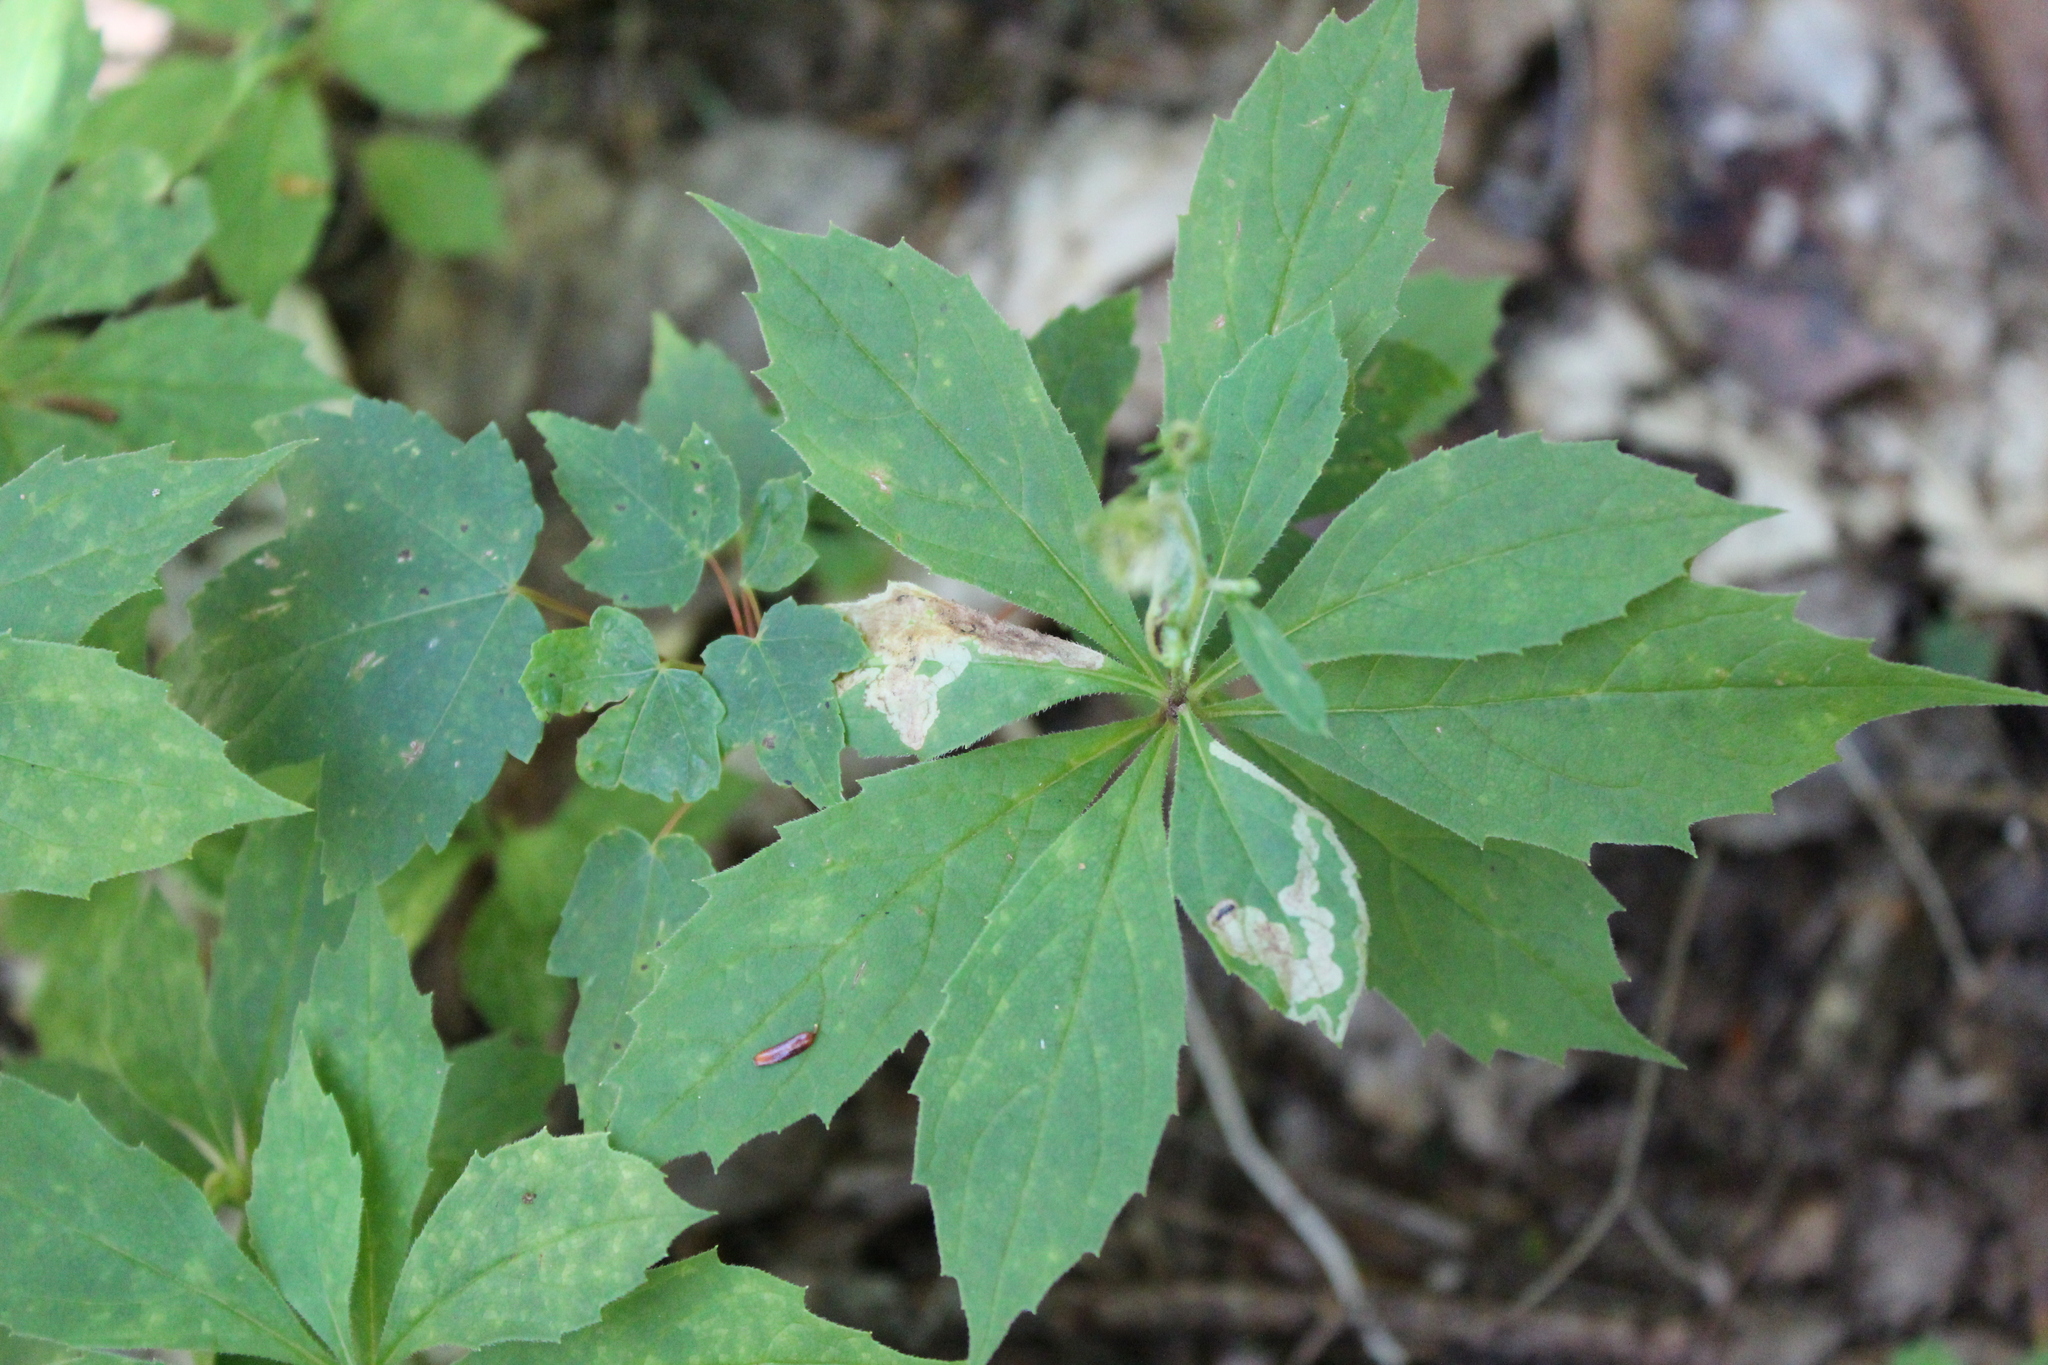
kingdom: Plantae
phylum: Tracheophyta
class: Magnoliopsida
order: Asterales
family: Asteraceae
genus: Oclemena
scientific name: Oclemena acuminata
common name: Mountain aster
